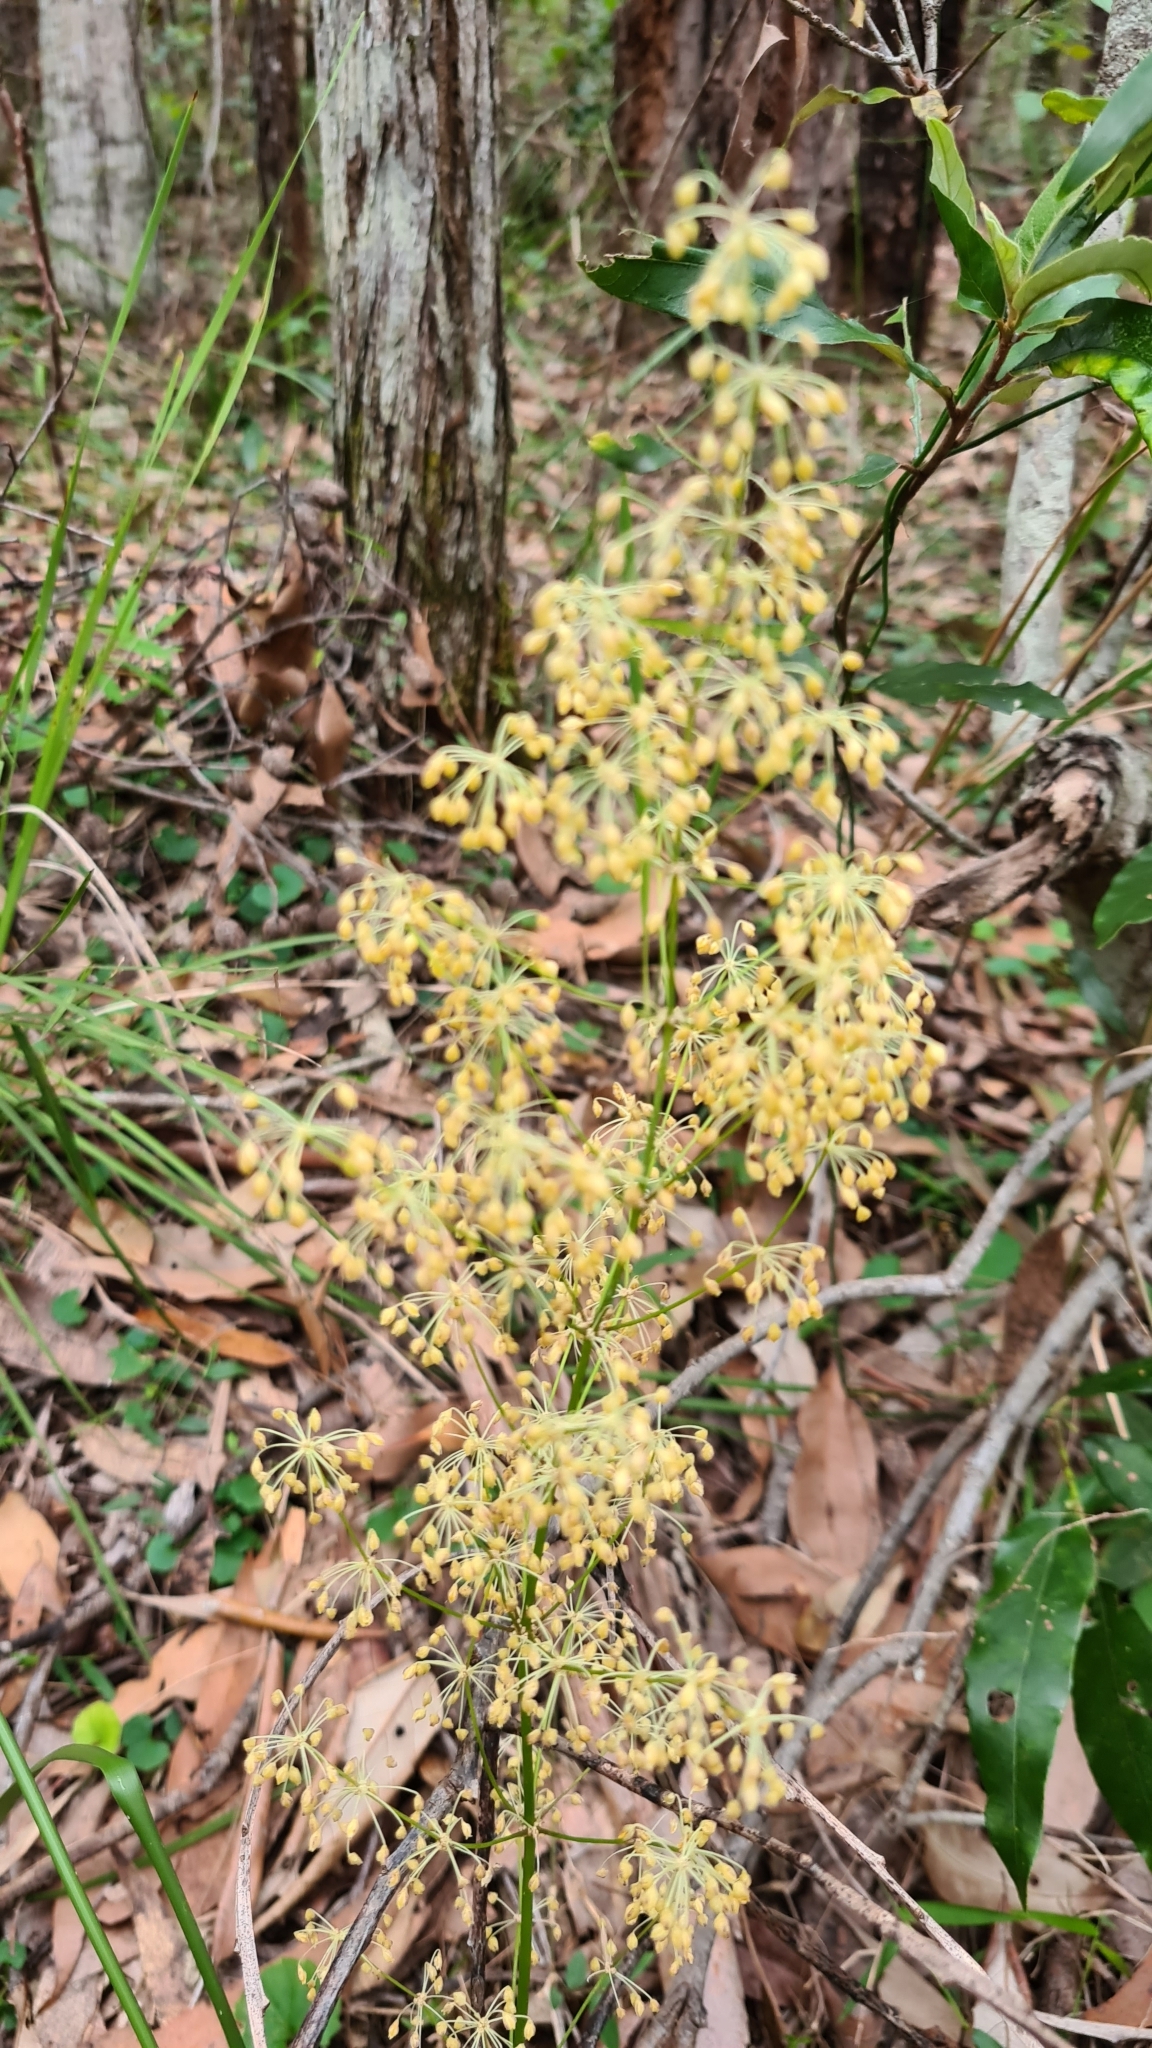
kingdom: Plantae
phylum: Tracheophyta
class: Liliopsida
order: Asparagales
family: Asparagaceae
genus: Lomandra
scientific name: Lomandra multiflora
